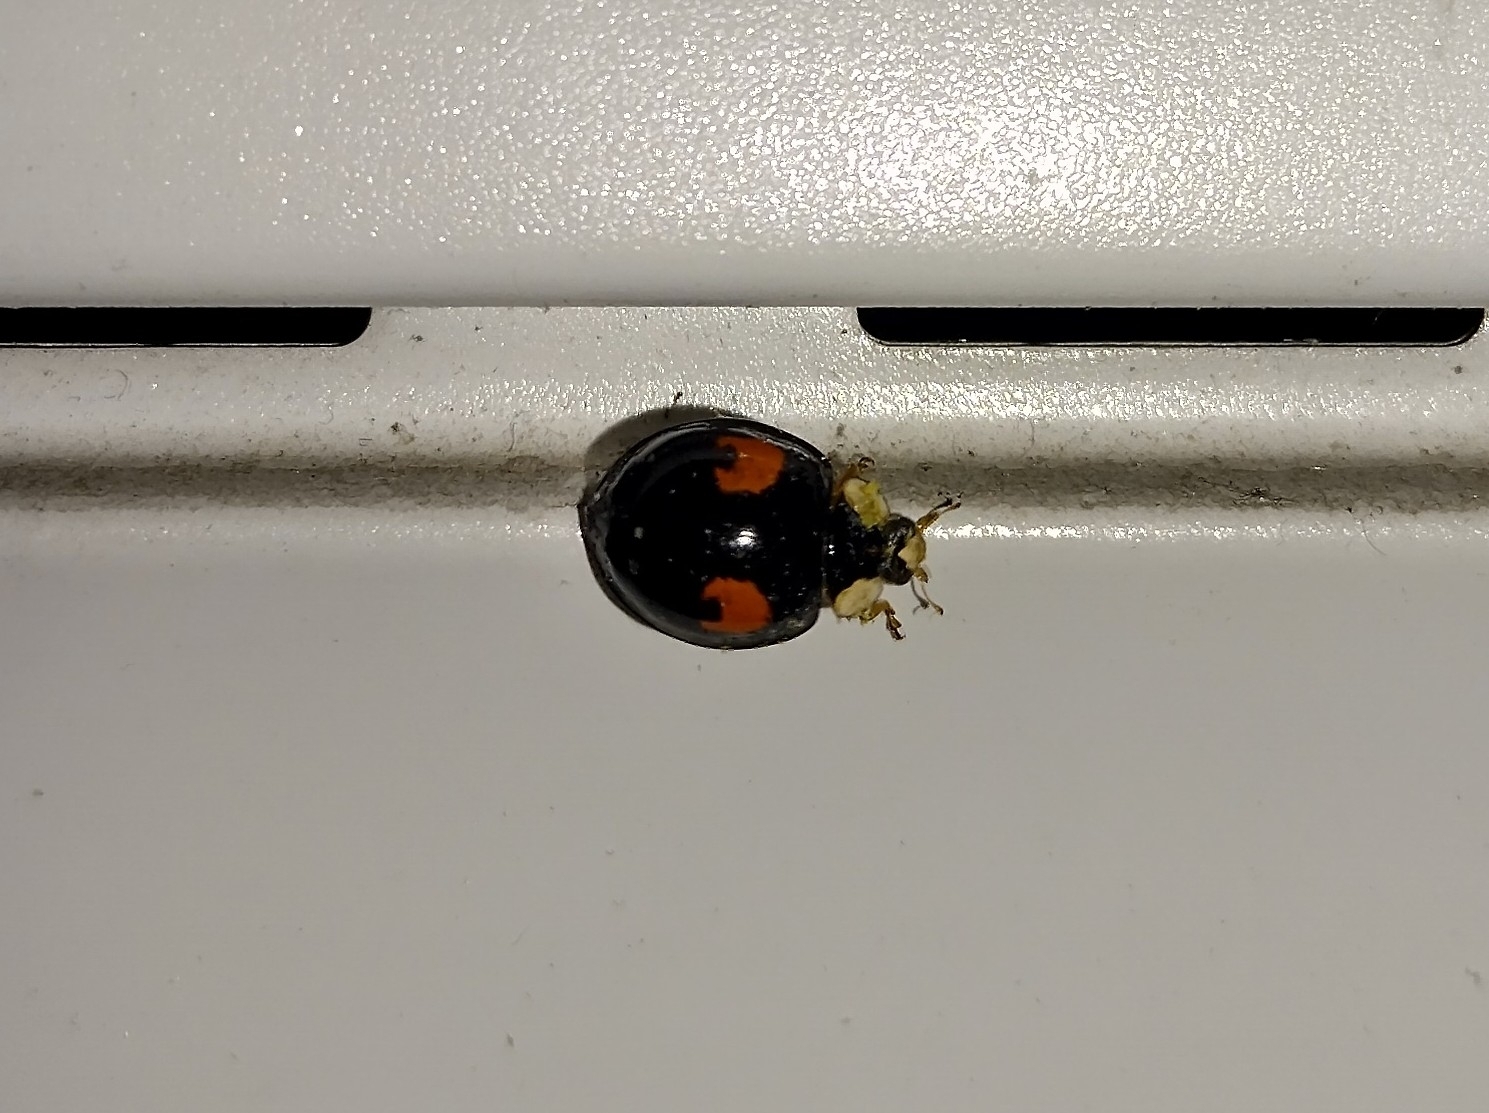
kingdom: Animalia
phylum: Arthropoda
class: Insecta
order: Coleoptera
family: Coccinellidae
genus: Harmonia
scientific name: Harmonia axyridis
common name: Harlequin ladybird
